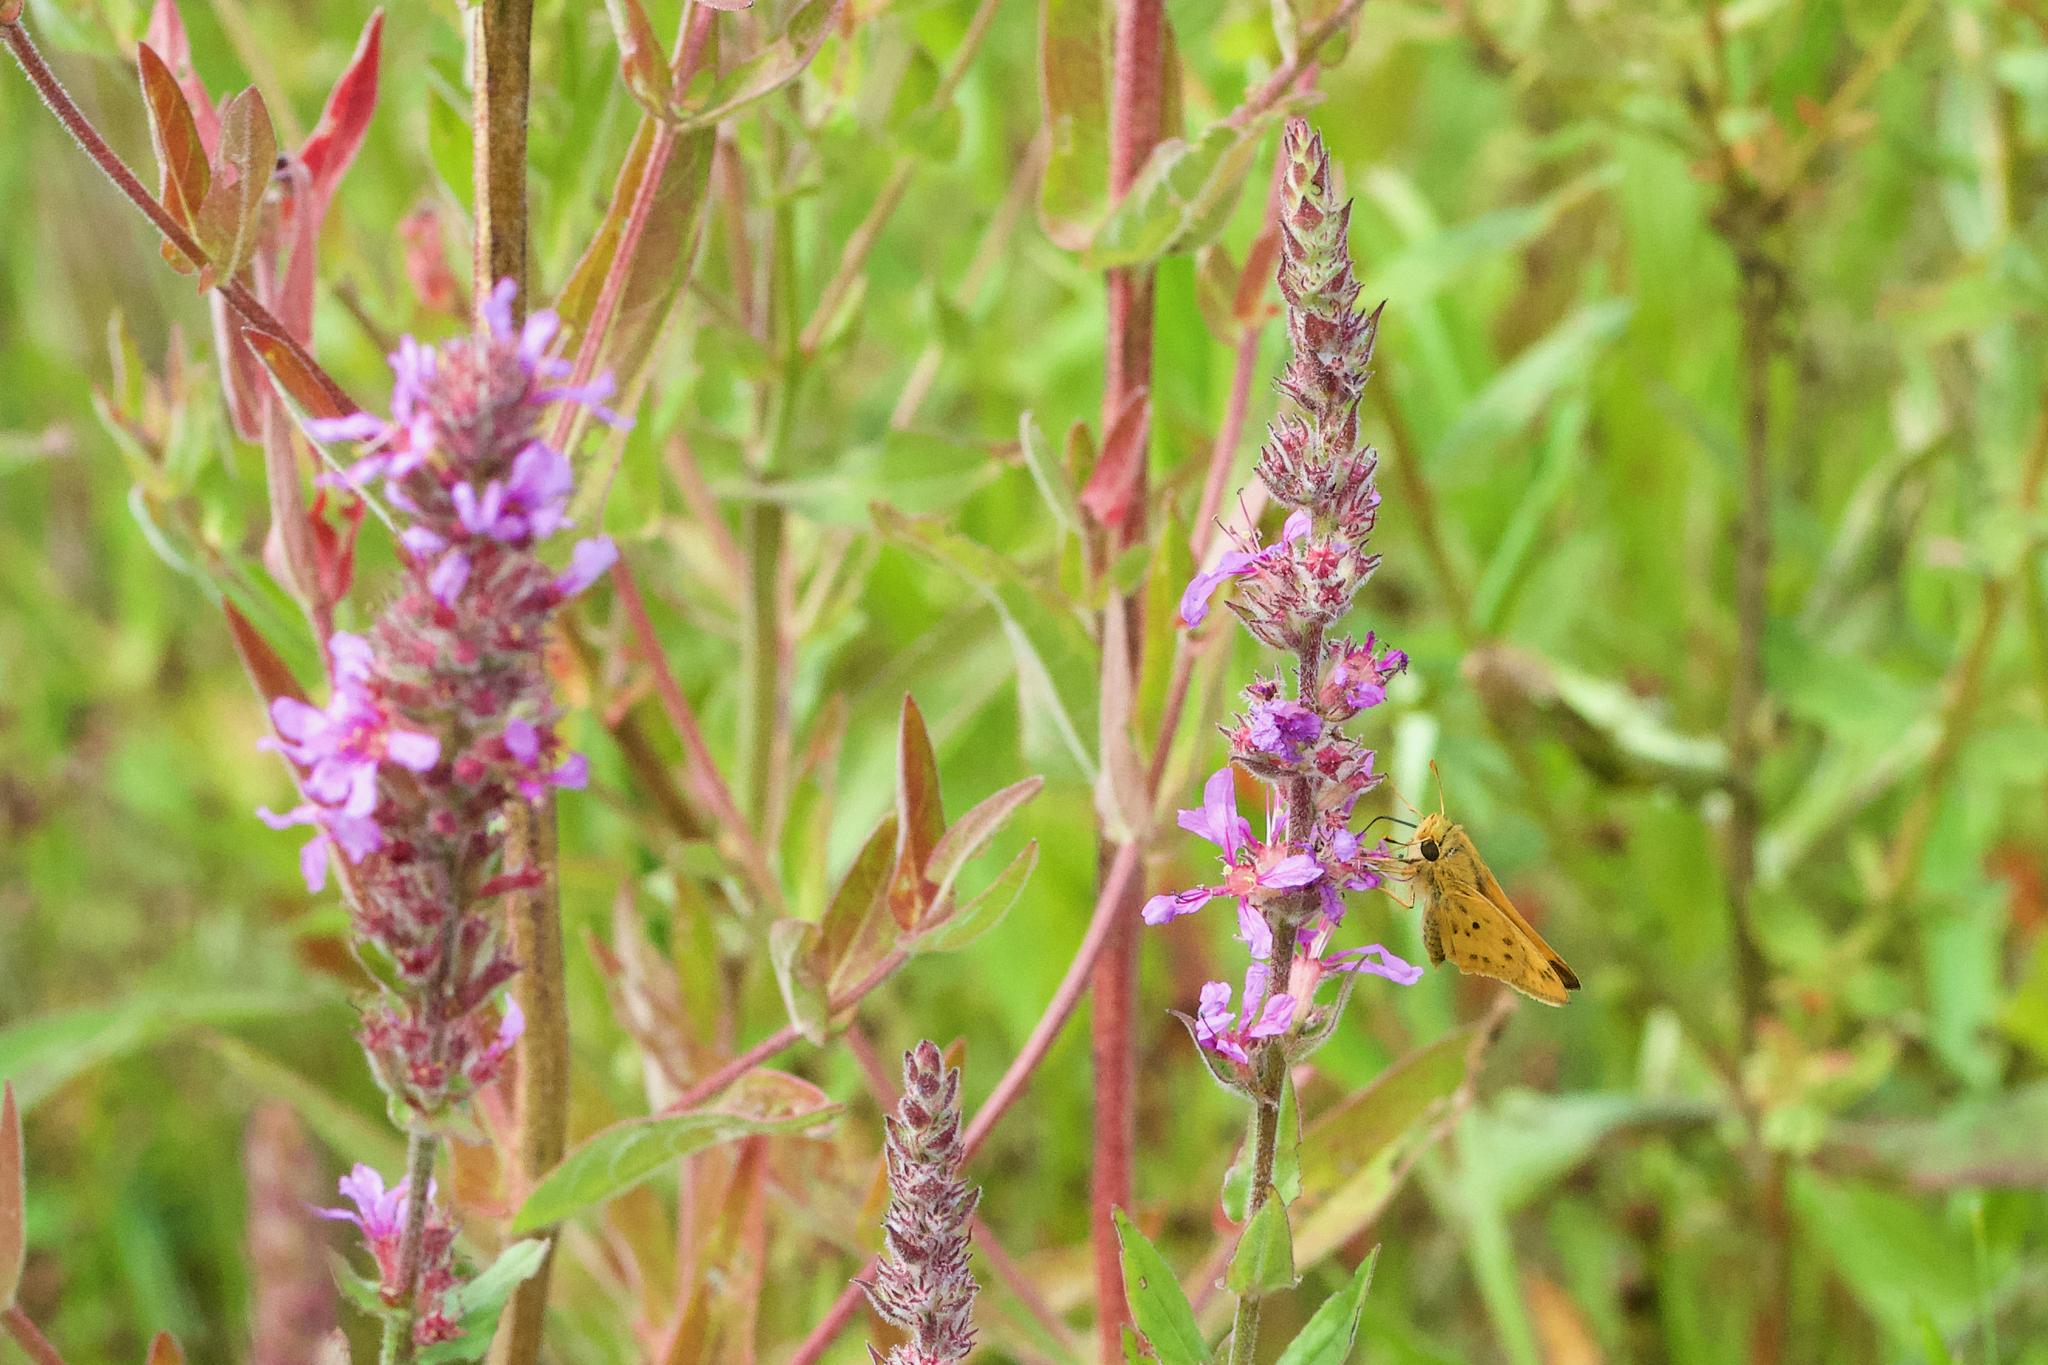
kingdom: Animalia
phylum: Arthropoda
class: Insecta
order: Lepidoptera
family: Hesperiidae
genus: Hylephila
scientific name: Hylephila phyleus
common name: Fiery skipper
